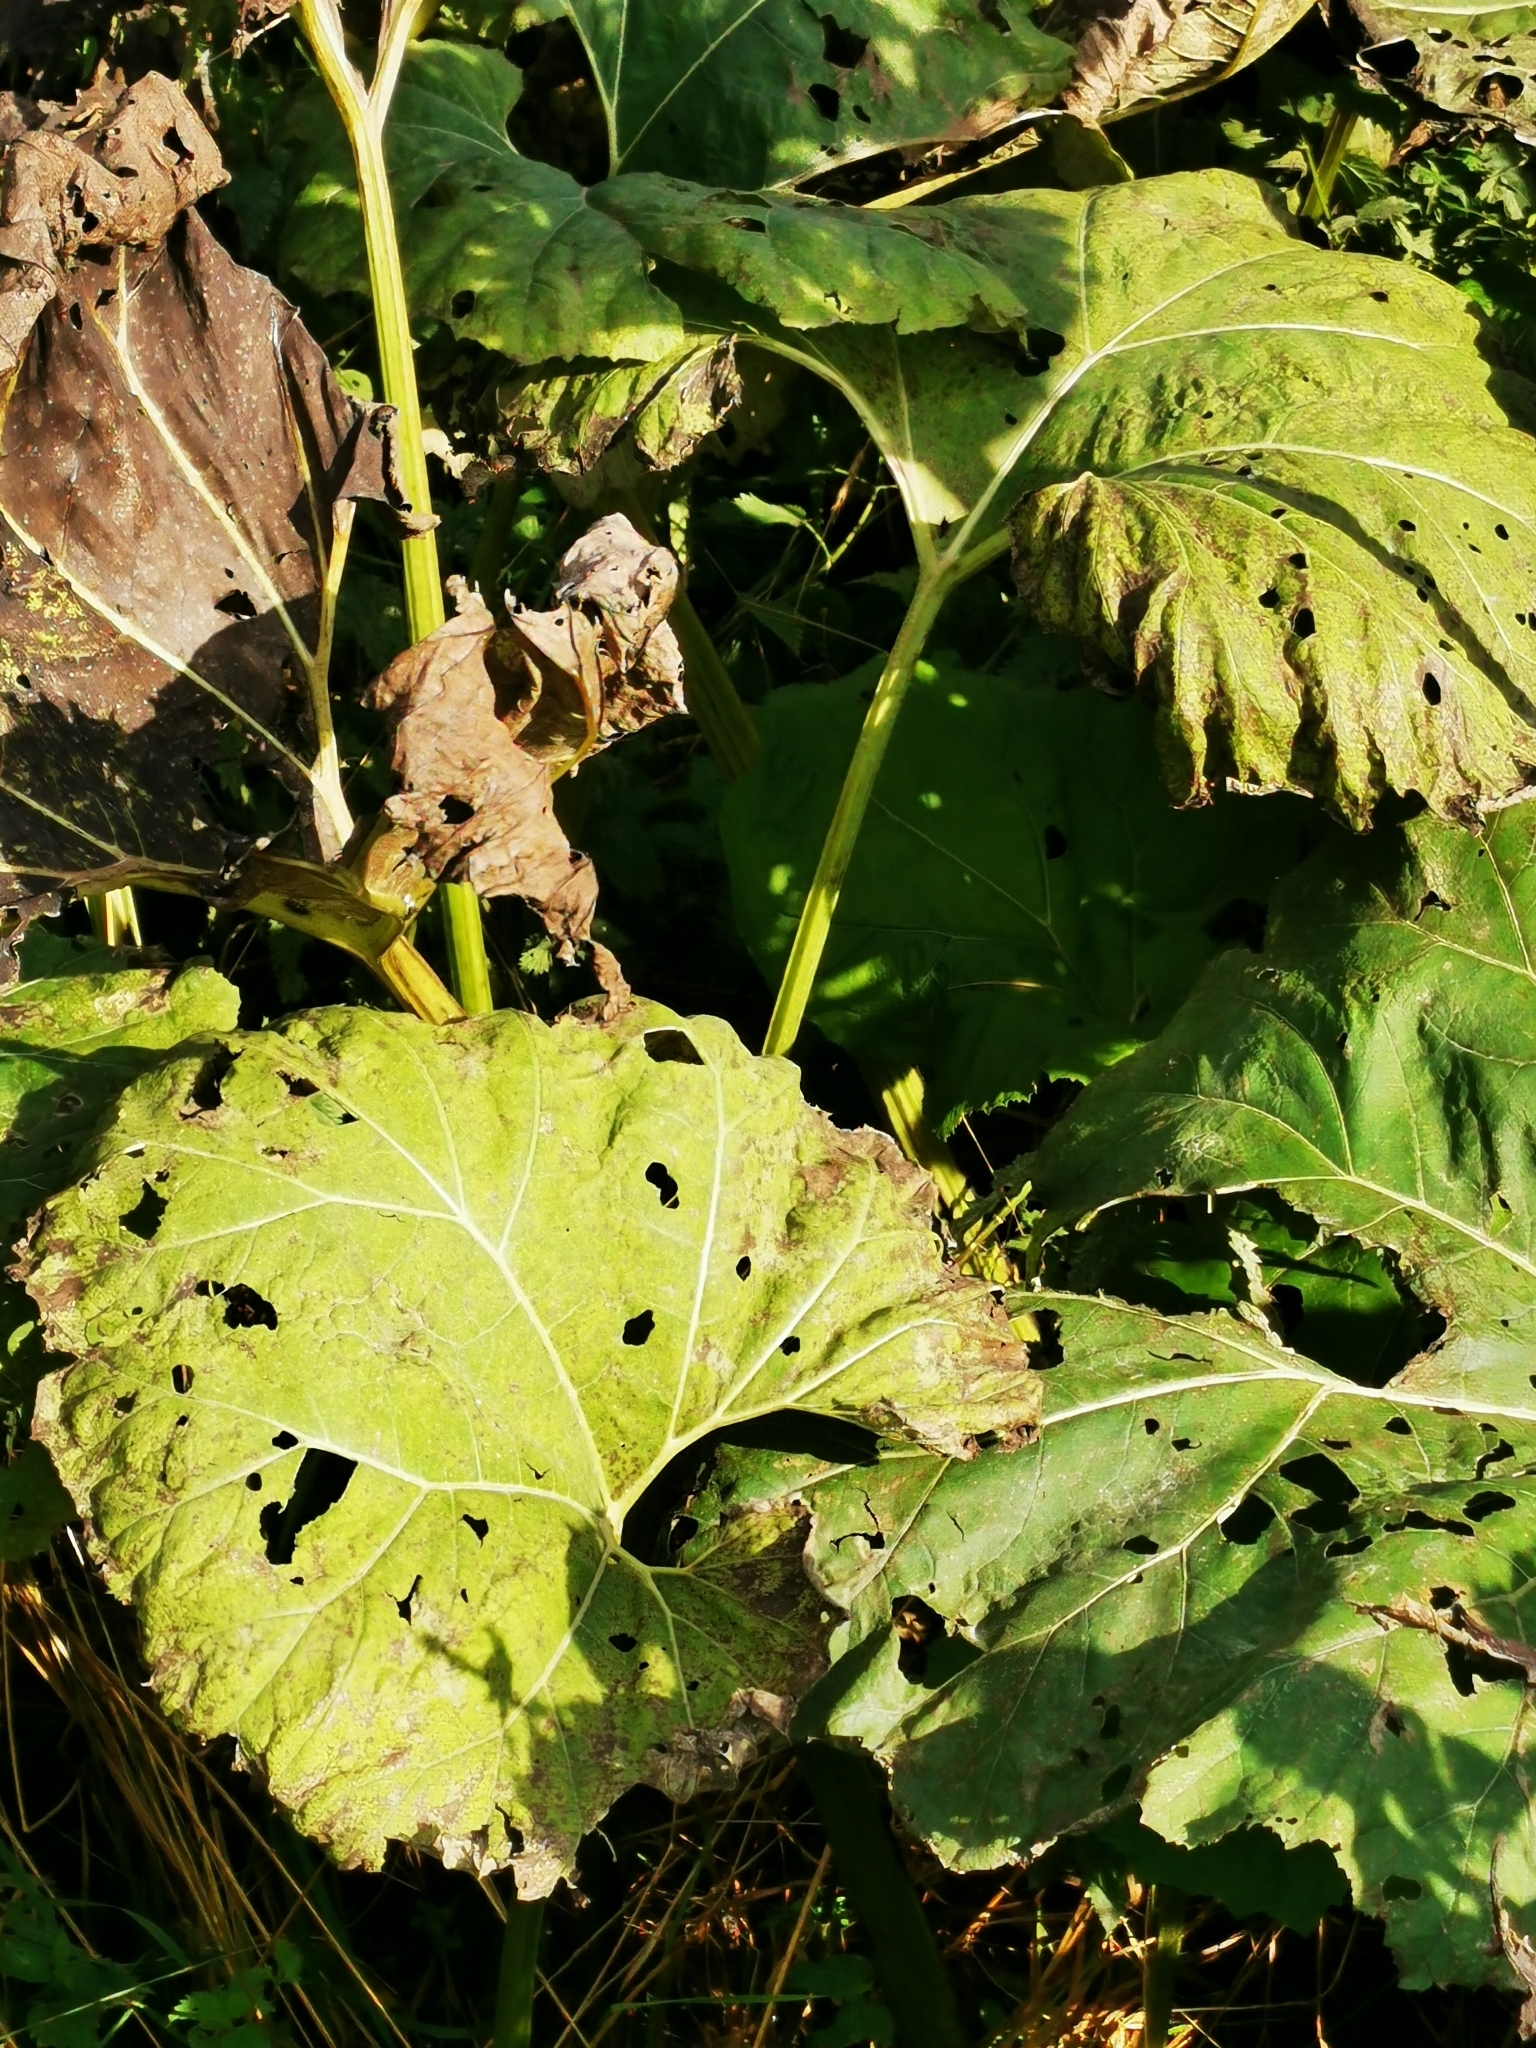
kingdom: Plantae
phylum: Tracheophyta
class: Magnoliopsida
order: Asterales
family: Asteraceae
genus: Petasites
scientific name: Petasites hybridus
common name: Butterbur
